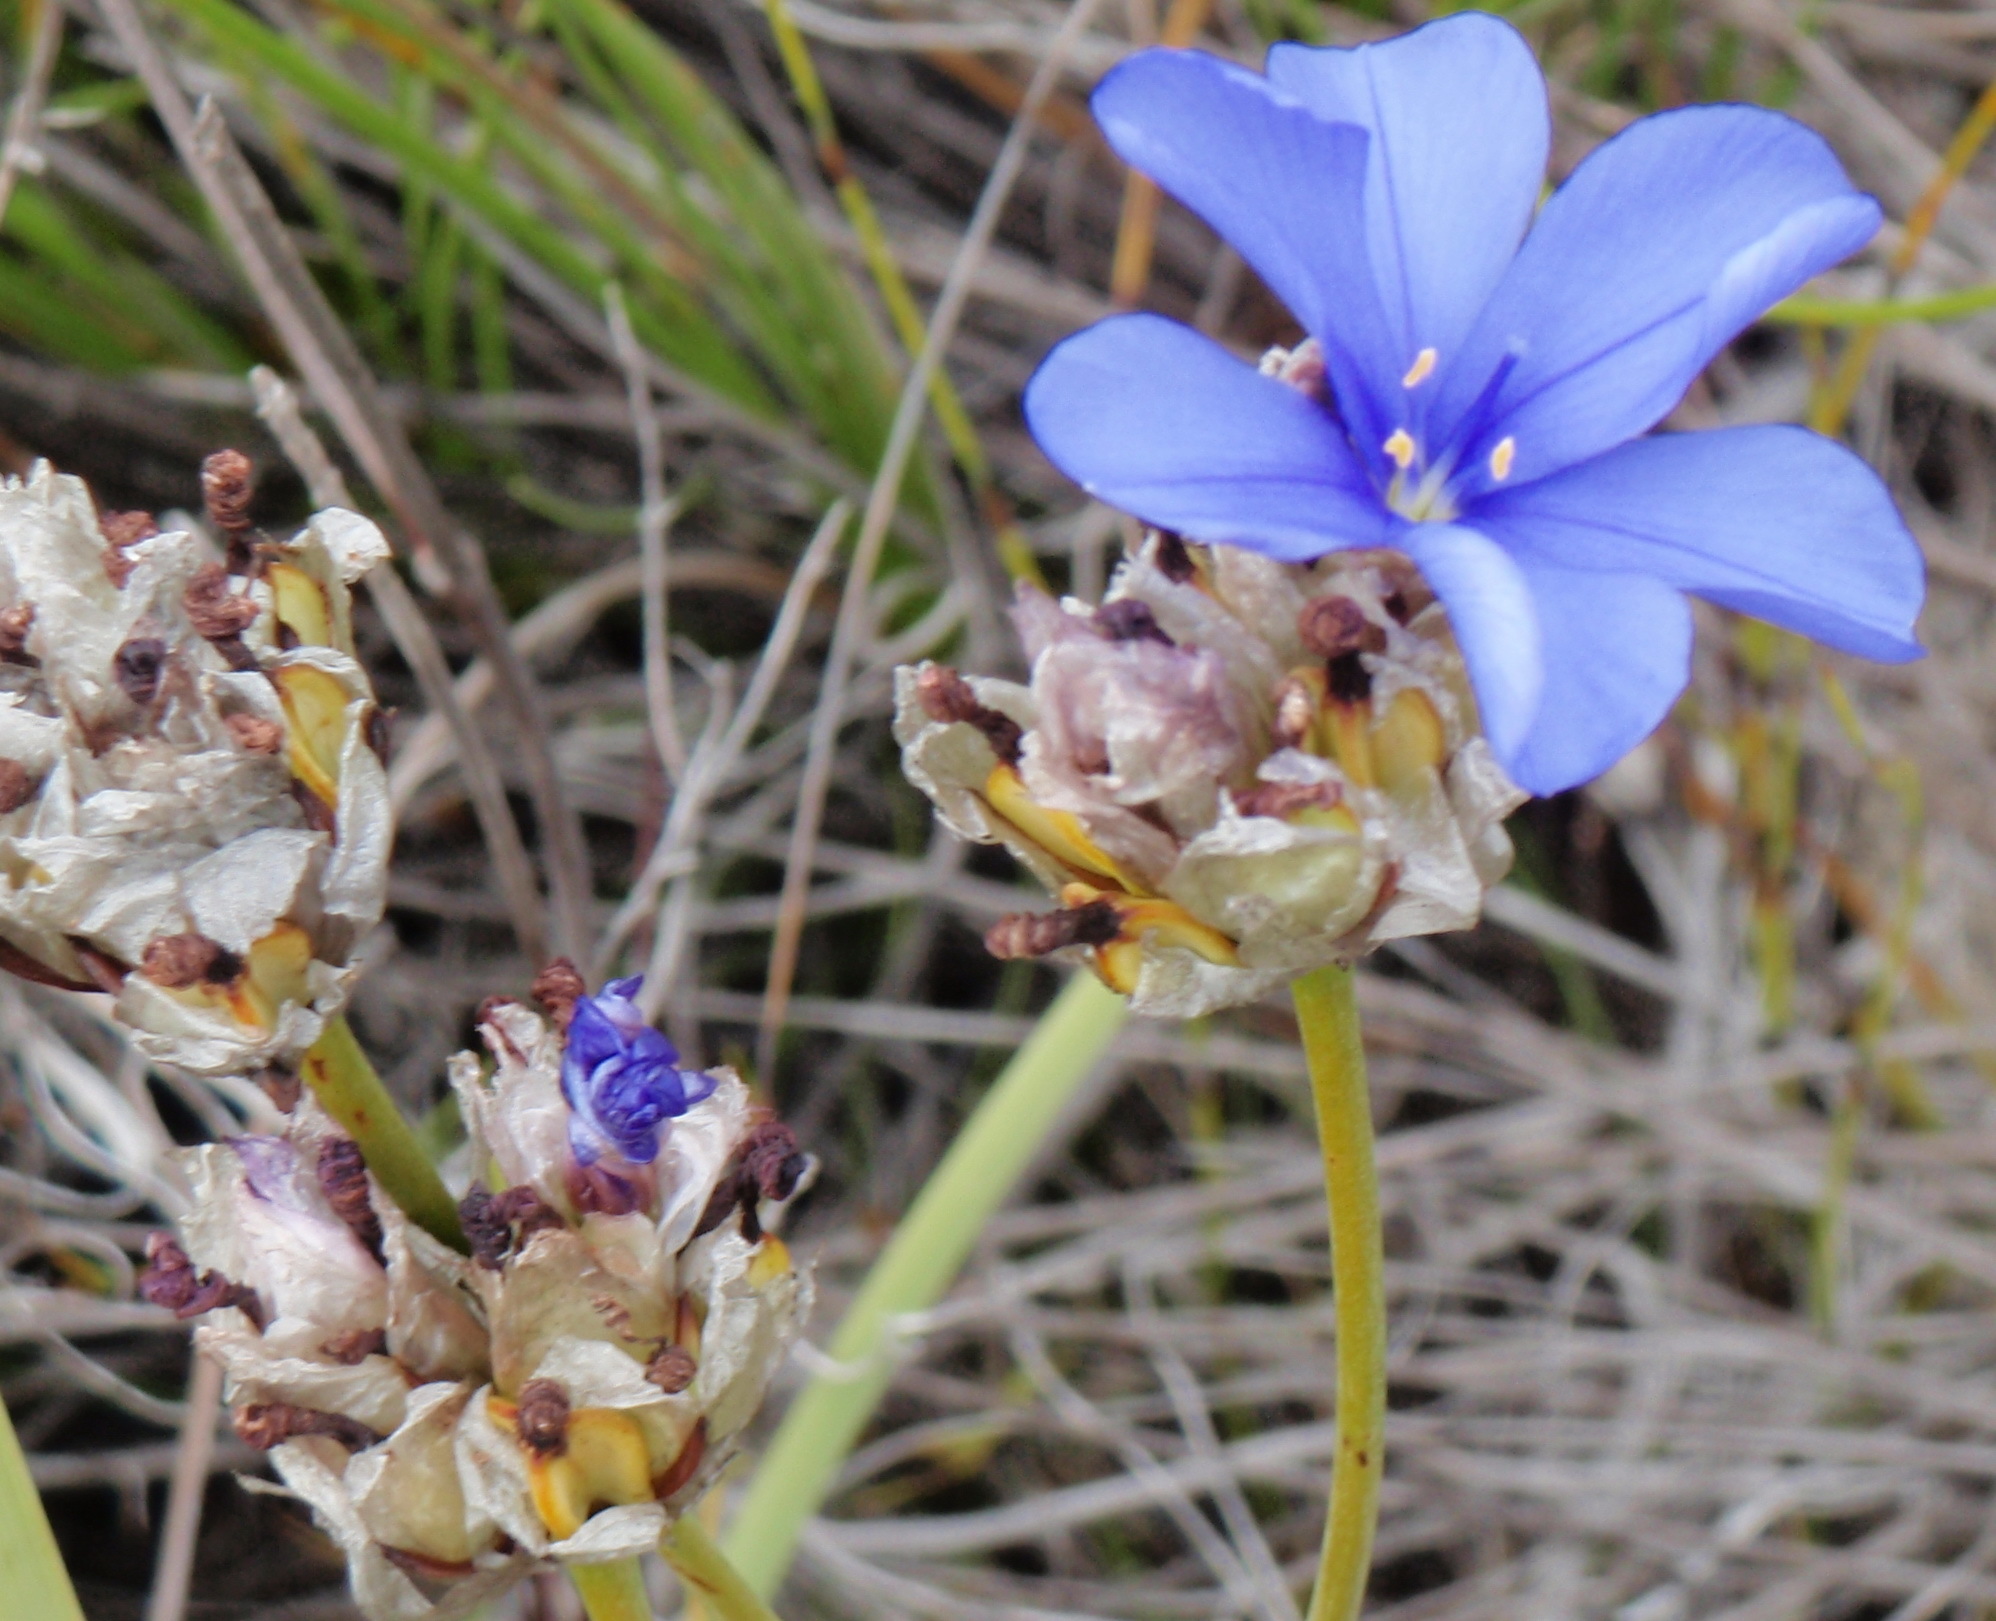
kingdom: Plantae
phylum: Tracheophyta
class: Liliopsida
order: Asparagales
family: Iridaceae
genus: Aristea
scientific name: Aristea oligocephala
